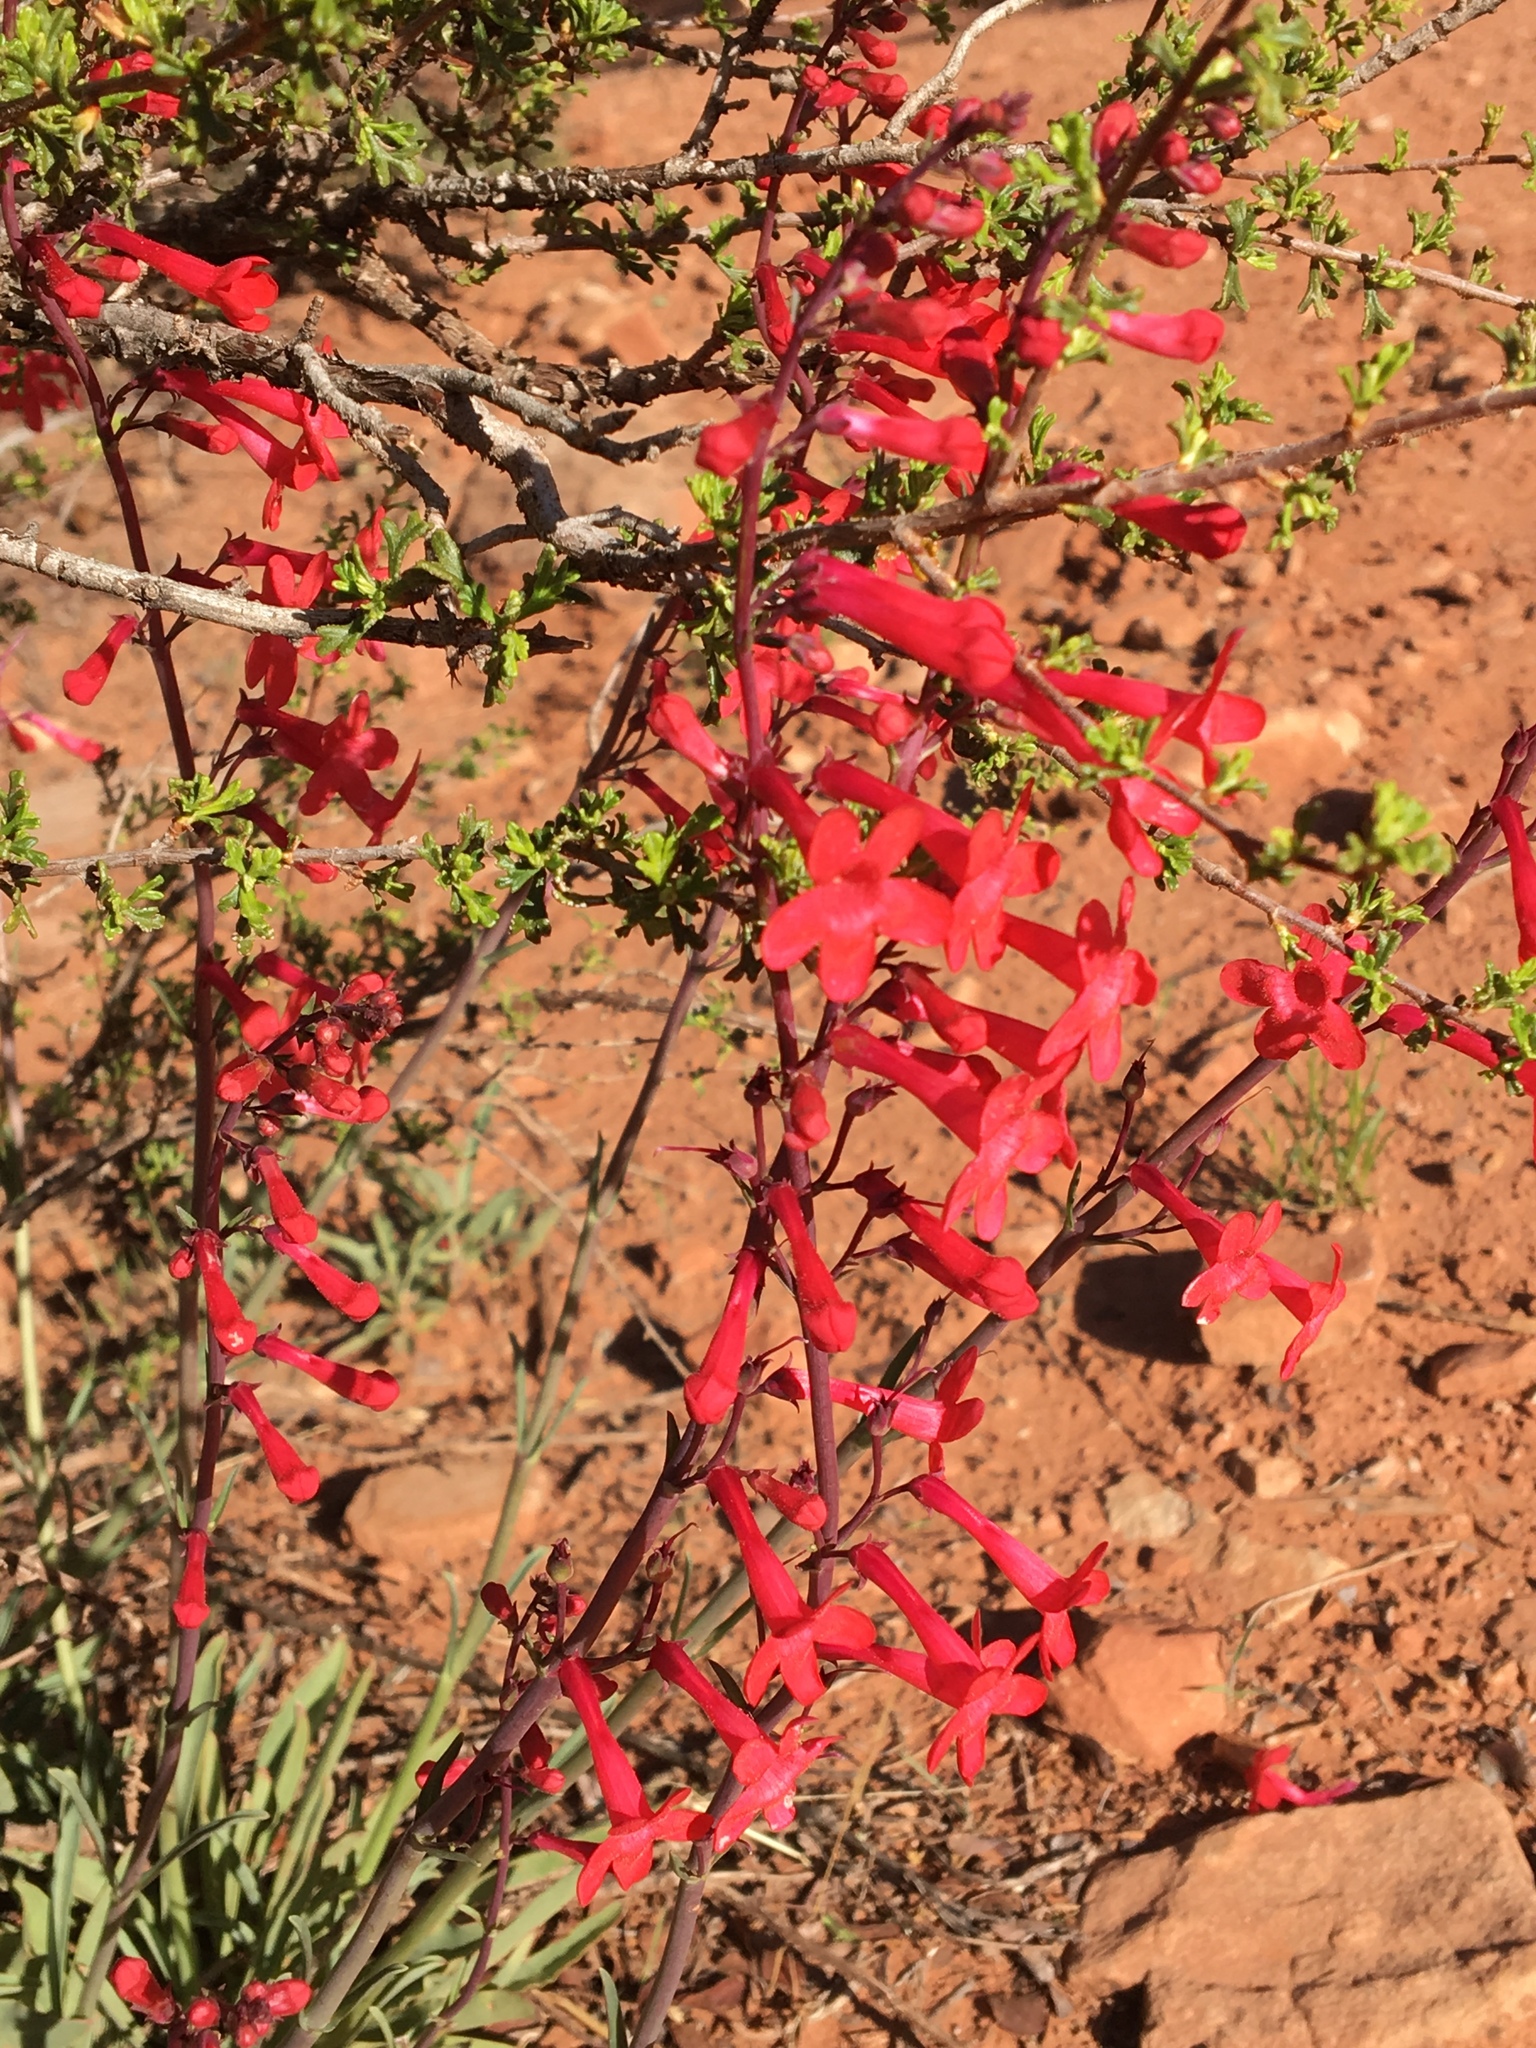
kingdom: Plantae
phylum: Tracheophyta
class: Magnoliopsida
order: Lamiales
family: Plantaginaceae
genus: Penstemon
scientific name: Penstemon utahensis
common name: Utah penstemon
